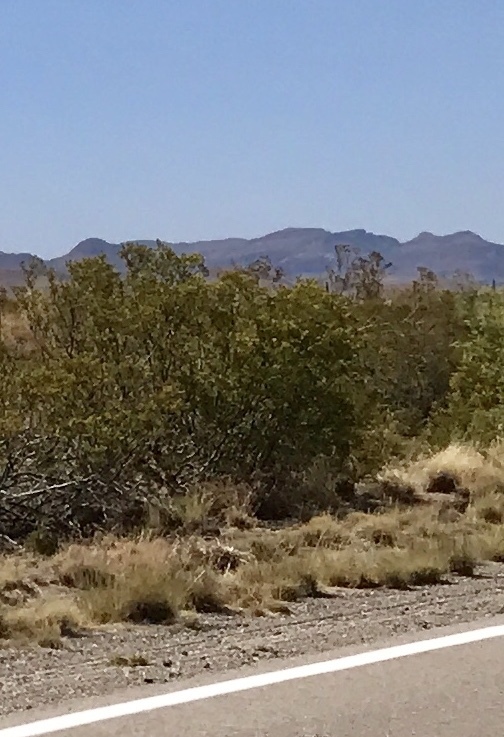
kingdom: Plantae
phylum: Tracheophyta
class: Magnoliopsida
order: Zygophyllales
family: Zygophyllaceae
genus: Larrea
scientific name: Larrea tridentata
